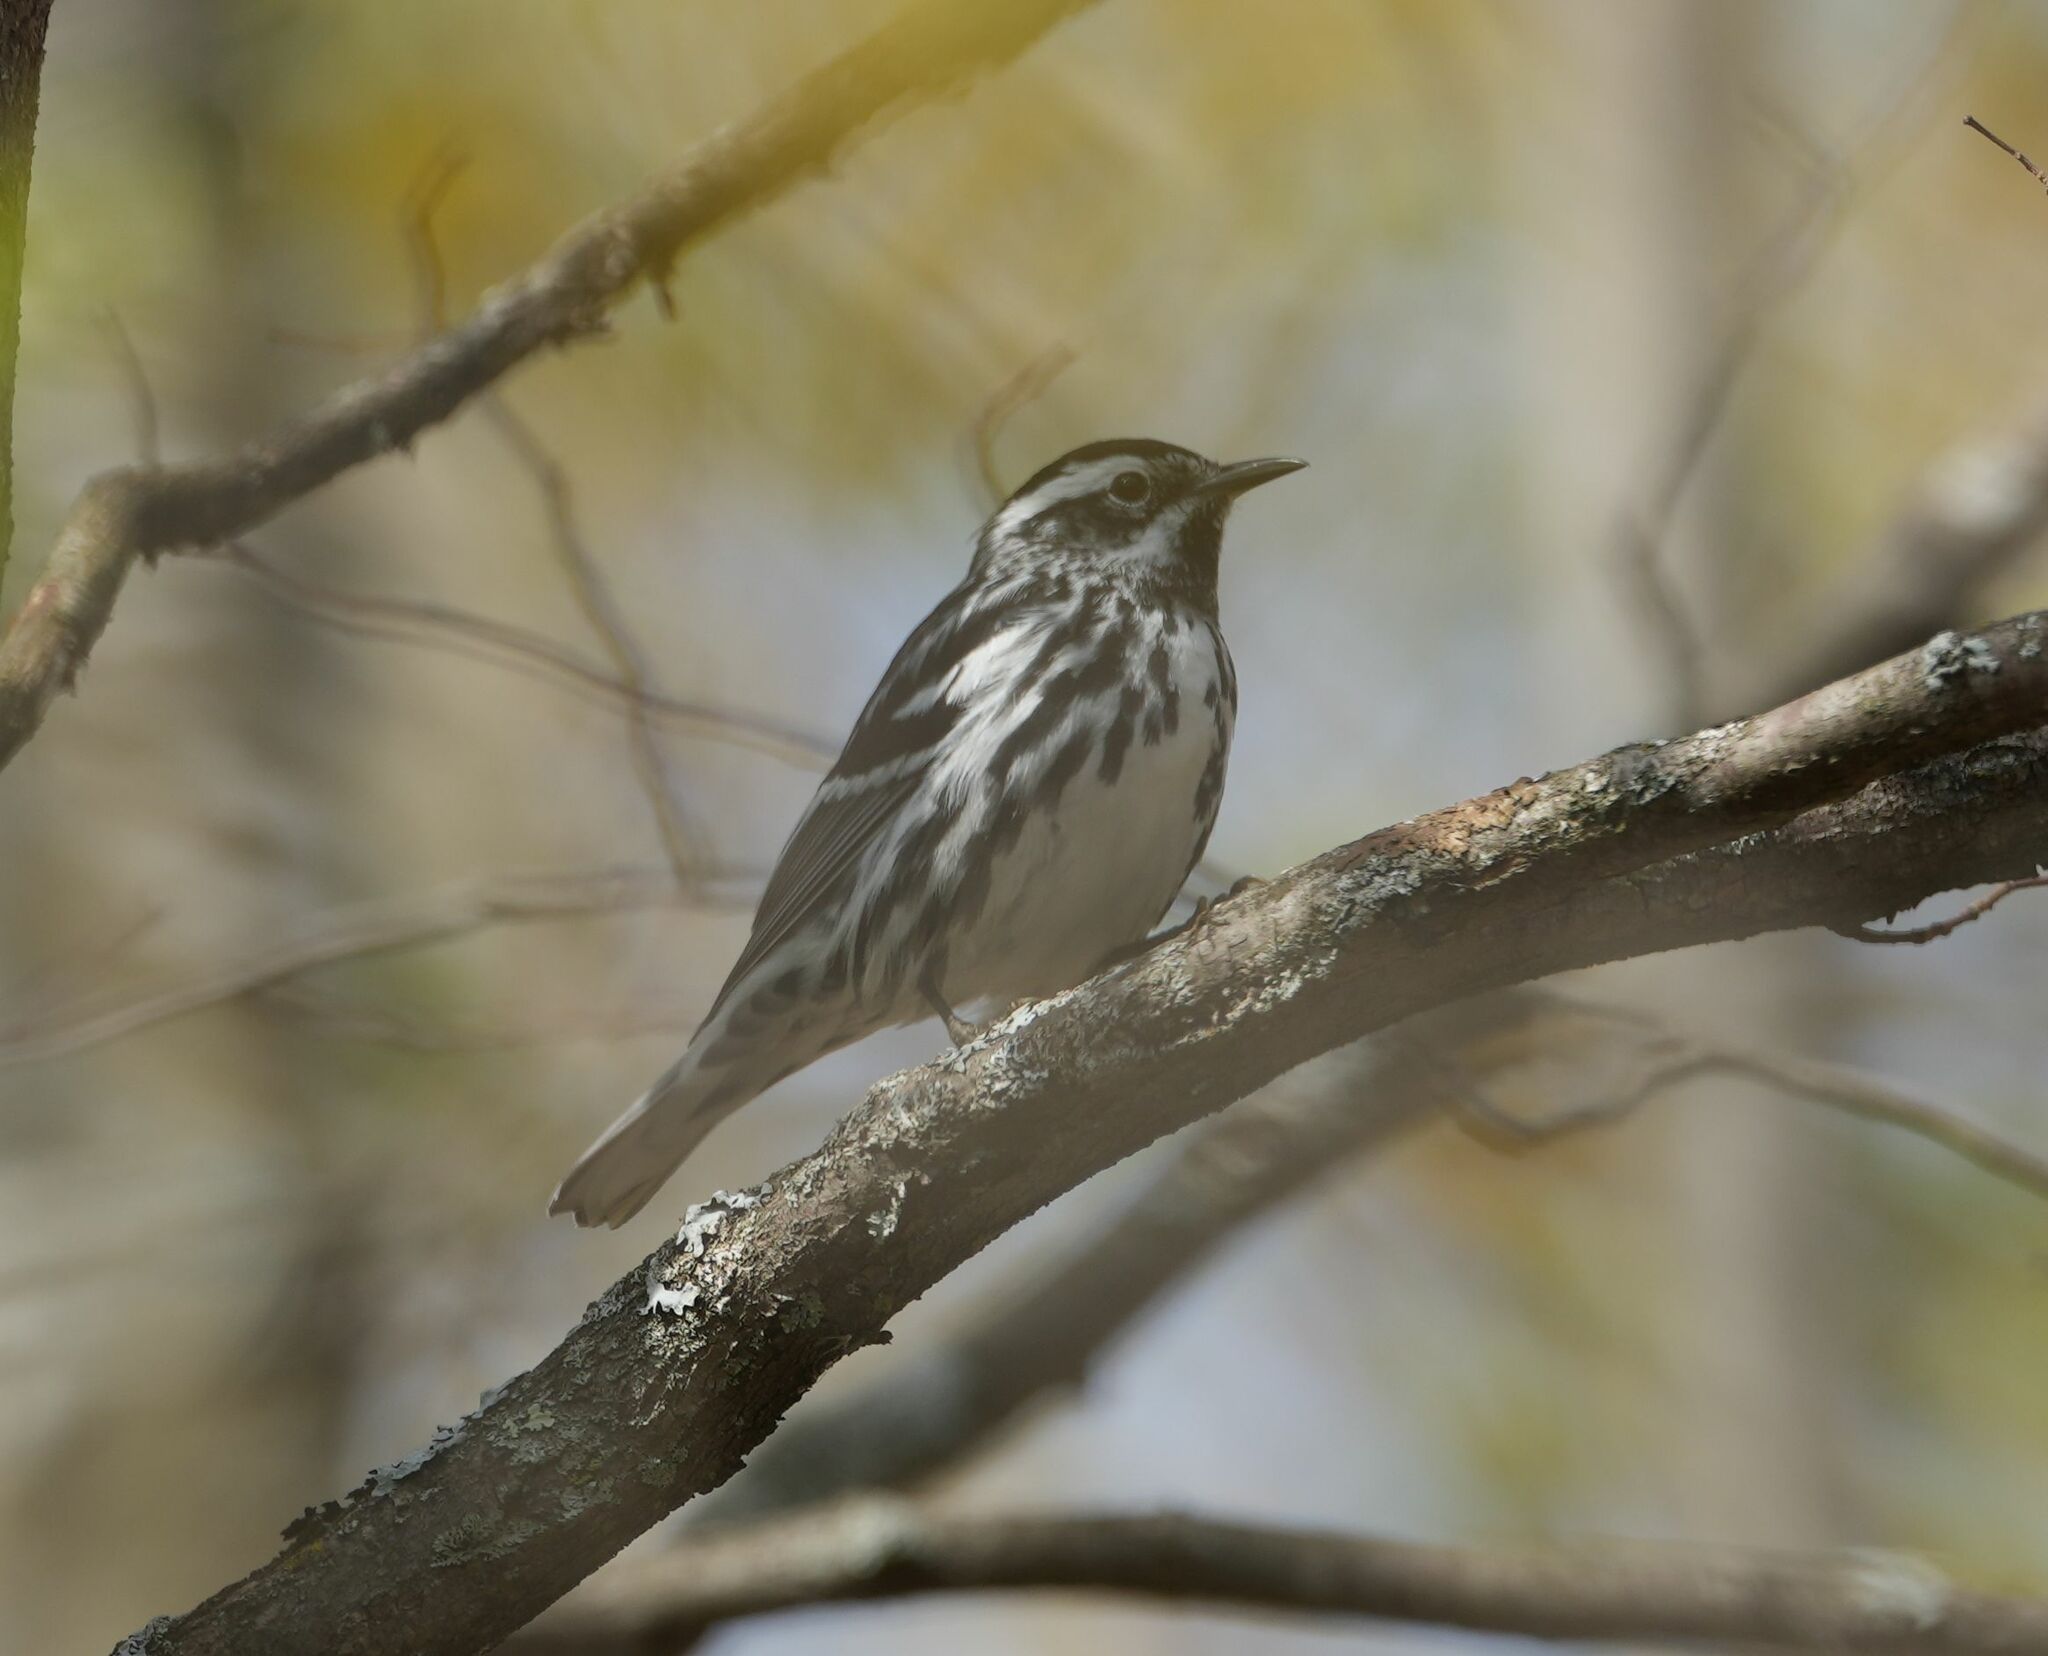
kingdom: Animalia
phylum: Chordata
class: Aves
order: Passeriformes
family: Parulidae
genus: Mniotilta
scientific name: Mniotilta varia
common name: Black-and-white warbler
